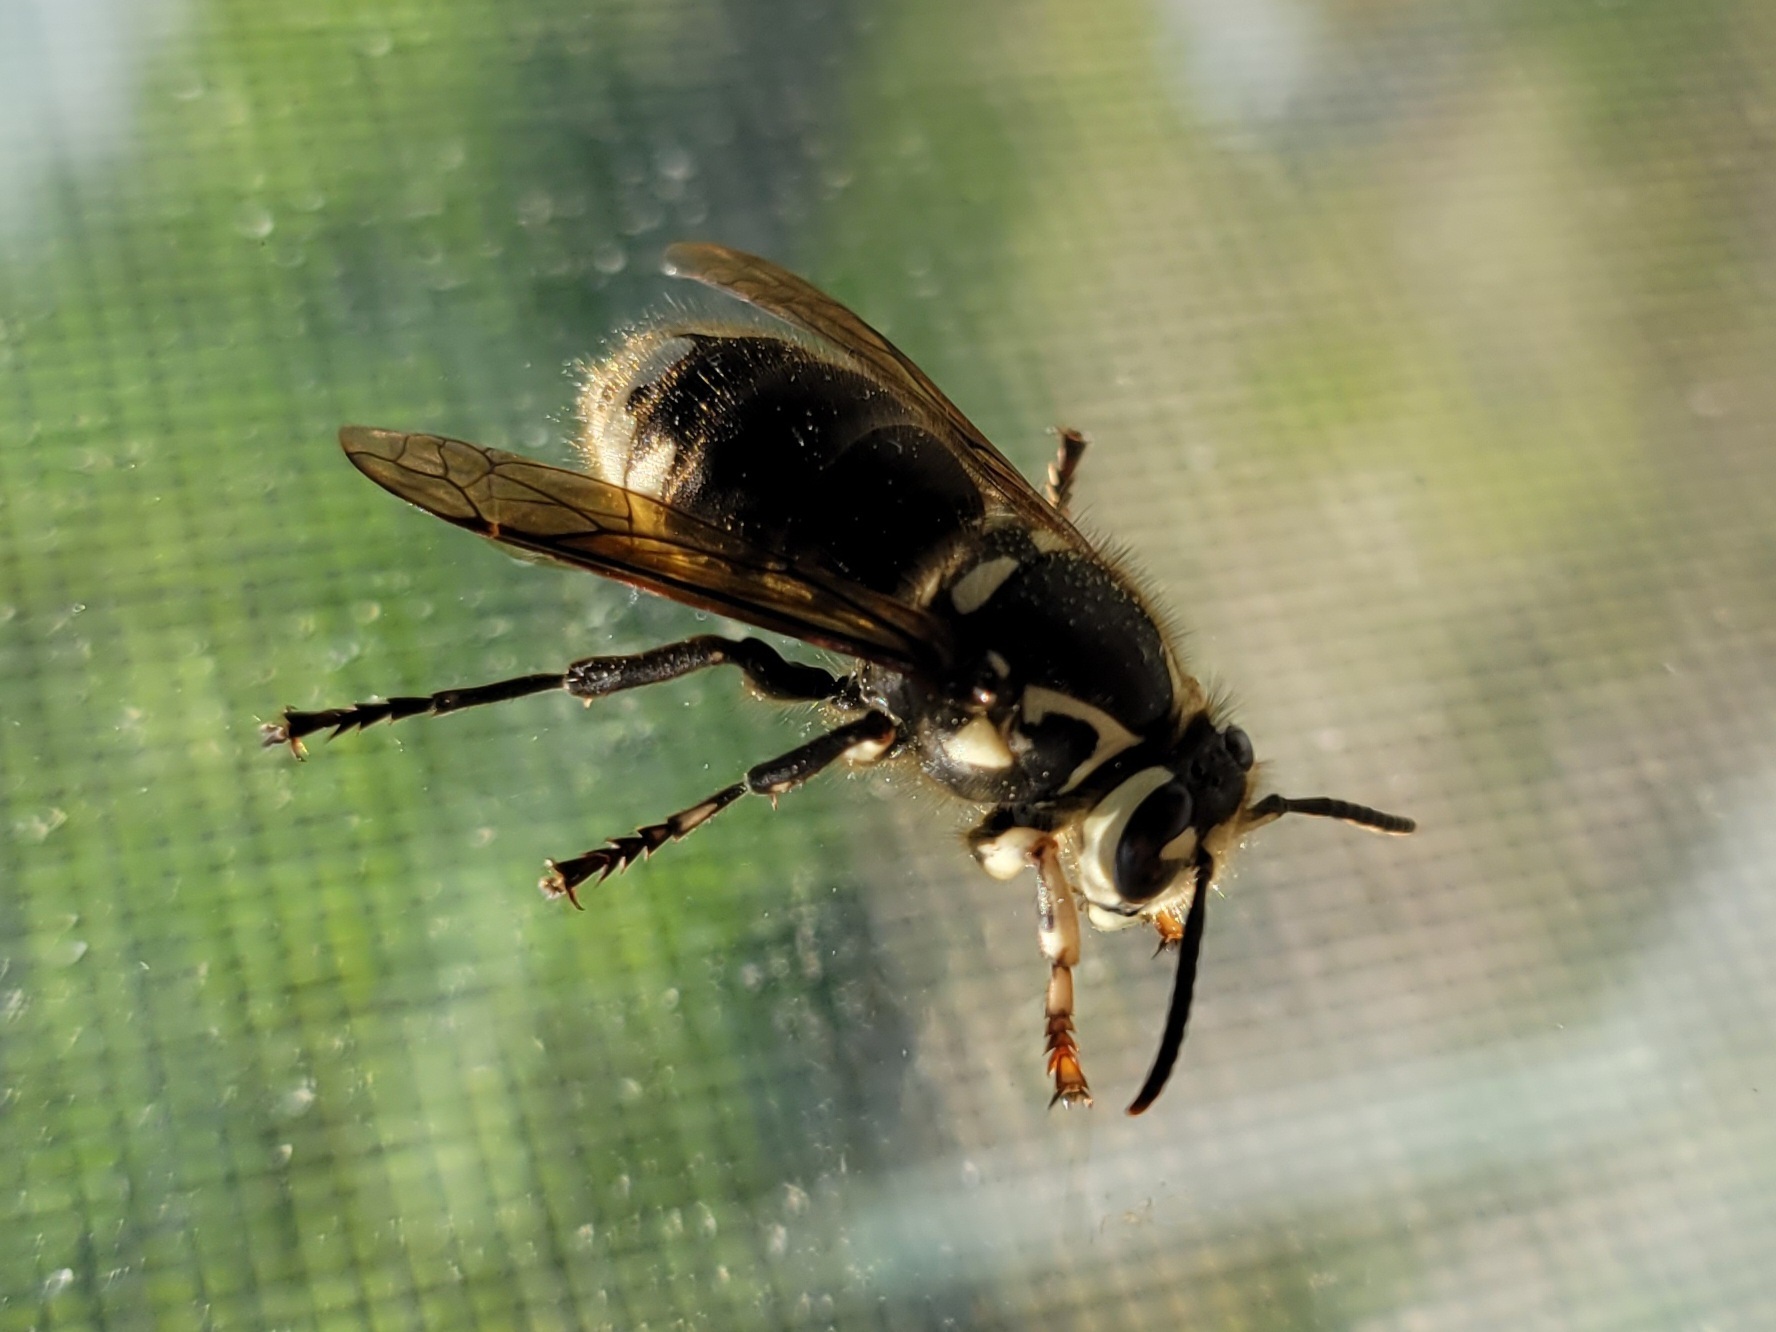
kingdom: Animalia
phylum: Arthropoda
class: Insecta
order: Hymenoptera
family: Vespidae
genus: Dolichovespula
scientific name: Dolichovespula maculata
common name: Bald-faced hornet
